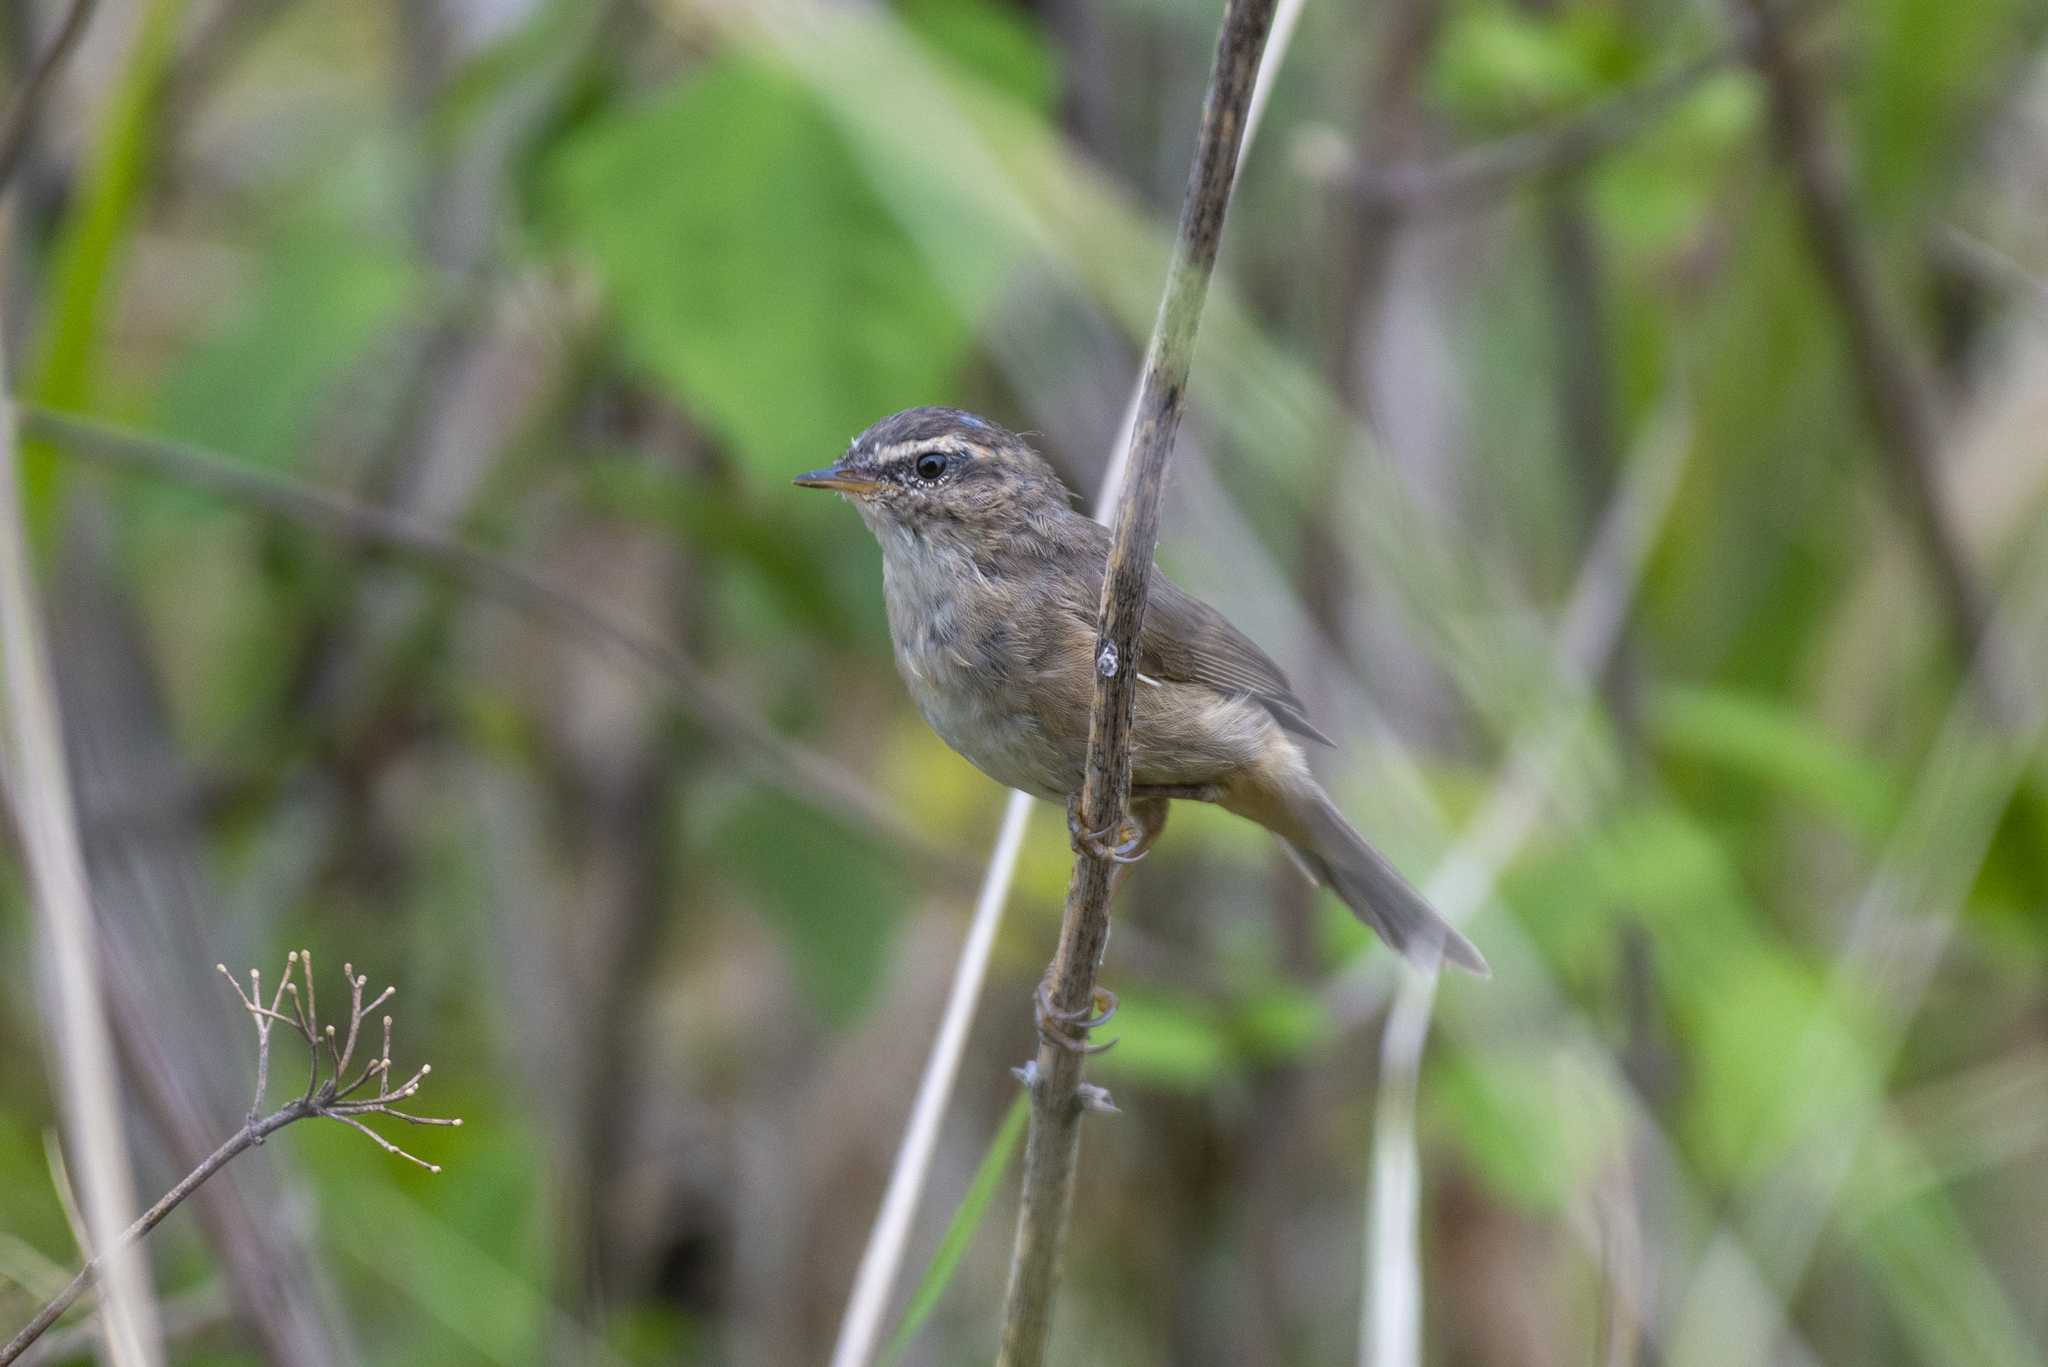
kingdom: Animalia
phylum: Chordata
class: Aves
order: Passeriformes
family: Phylloscopidae
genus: Phylloscopus
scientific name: Phylloscopus fuscatus
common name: Dusky warbler
